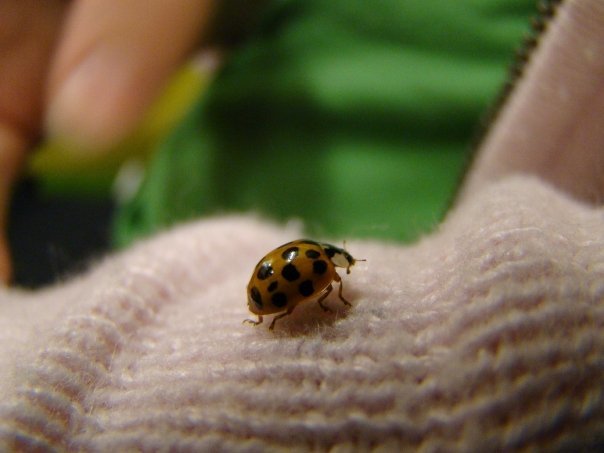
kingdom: Animalia
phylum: Arthropoda
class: Insecta
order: Coleoptera
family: Coccinellidae
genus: Harmonia
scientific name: Harmonia axyridis
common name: Harlequin ladybird
